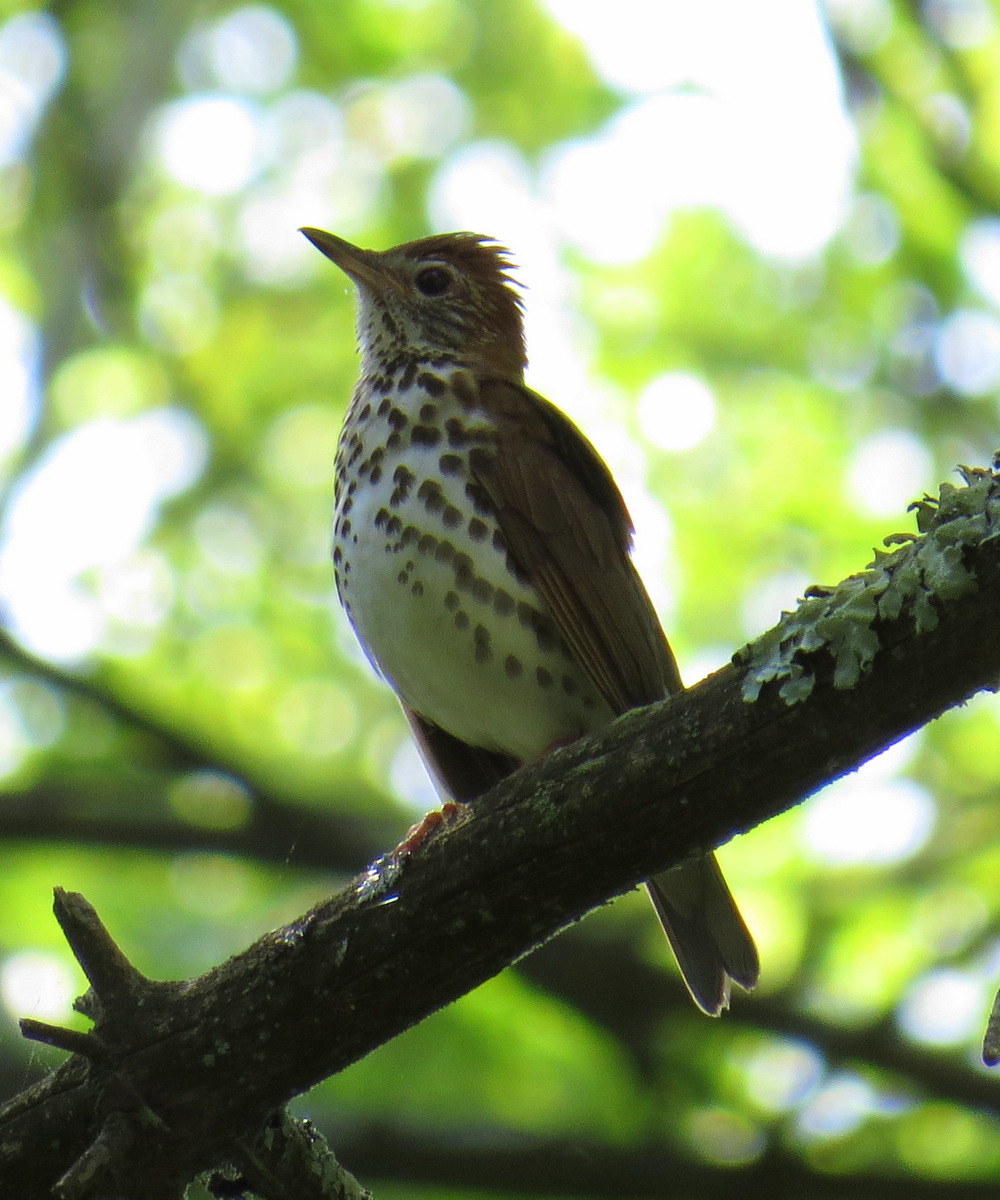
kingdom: Animalia
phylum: Chordata
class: Aves
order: Passeriformes
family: Turdidae
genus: Hylocichla
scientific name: Hylocichla mustelina
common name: Wood thrush
